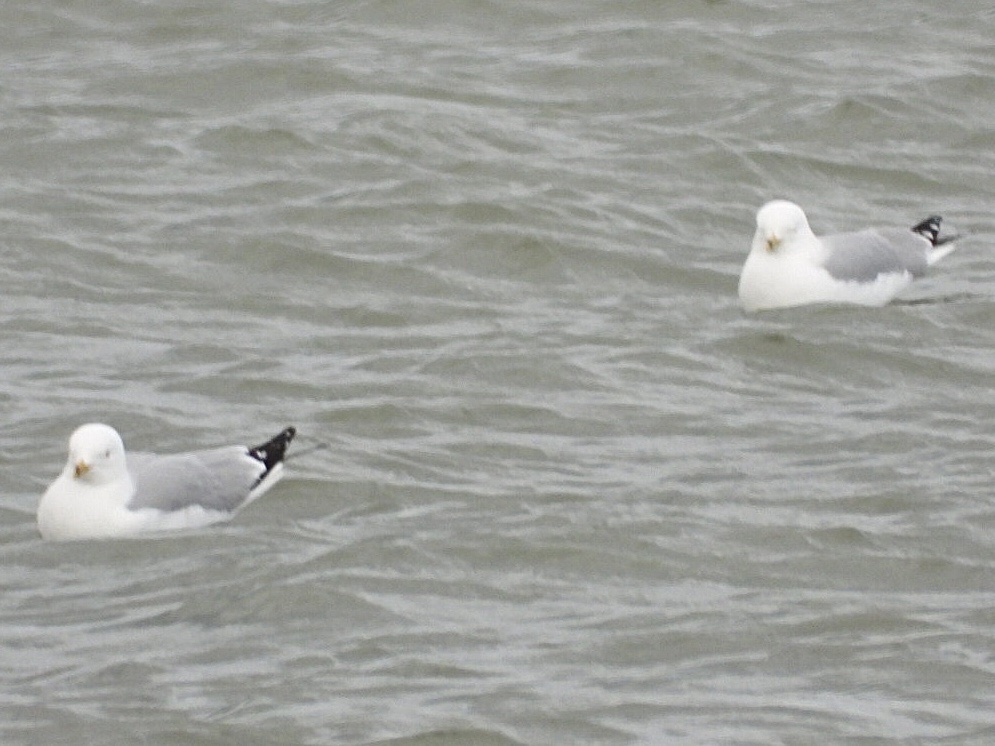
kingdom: Animalia
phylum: Chordata
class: Aves
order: Charadriiformes
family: Laridae
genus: Larus
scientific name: Larus delawarensis
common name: Ring-billed gull
